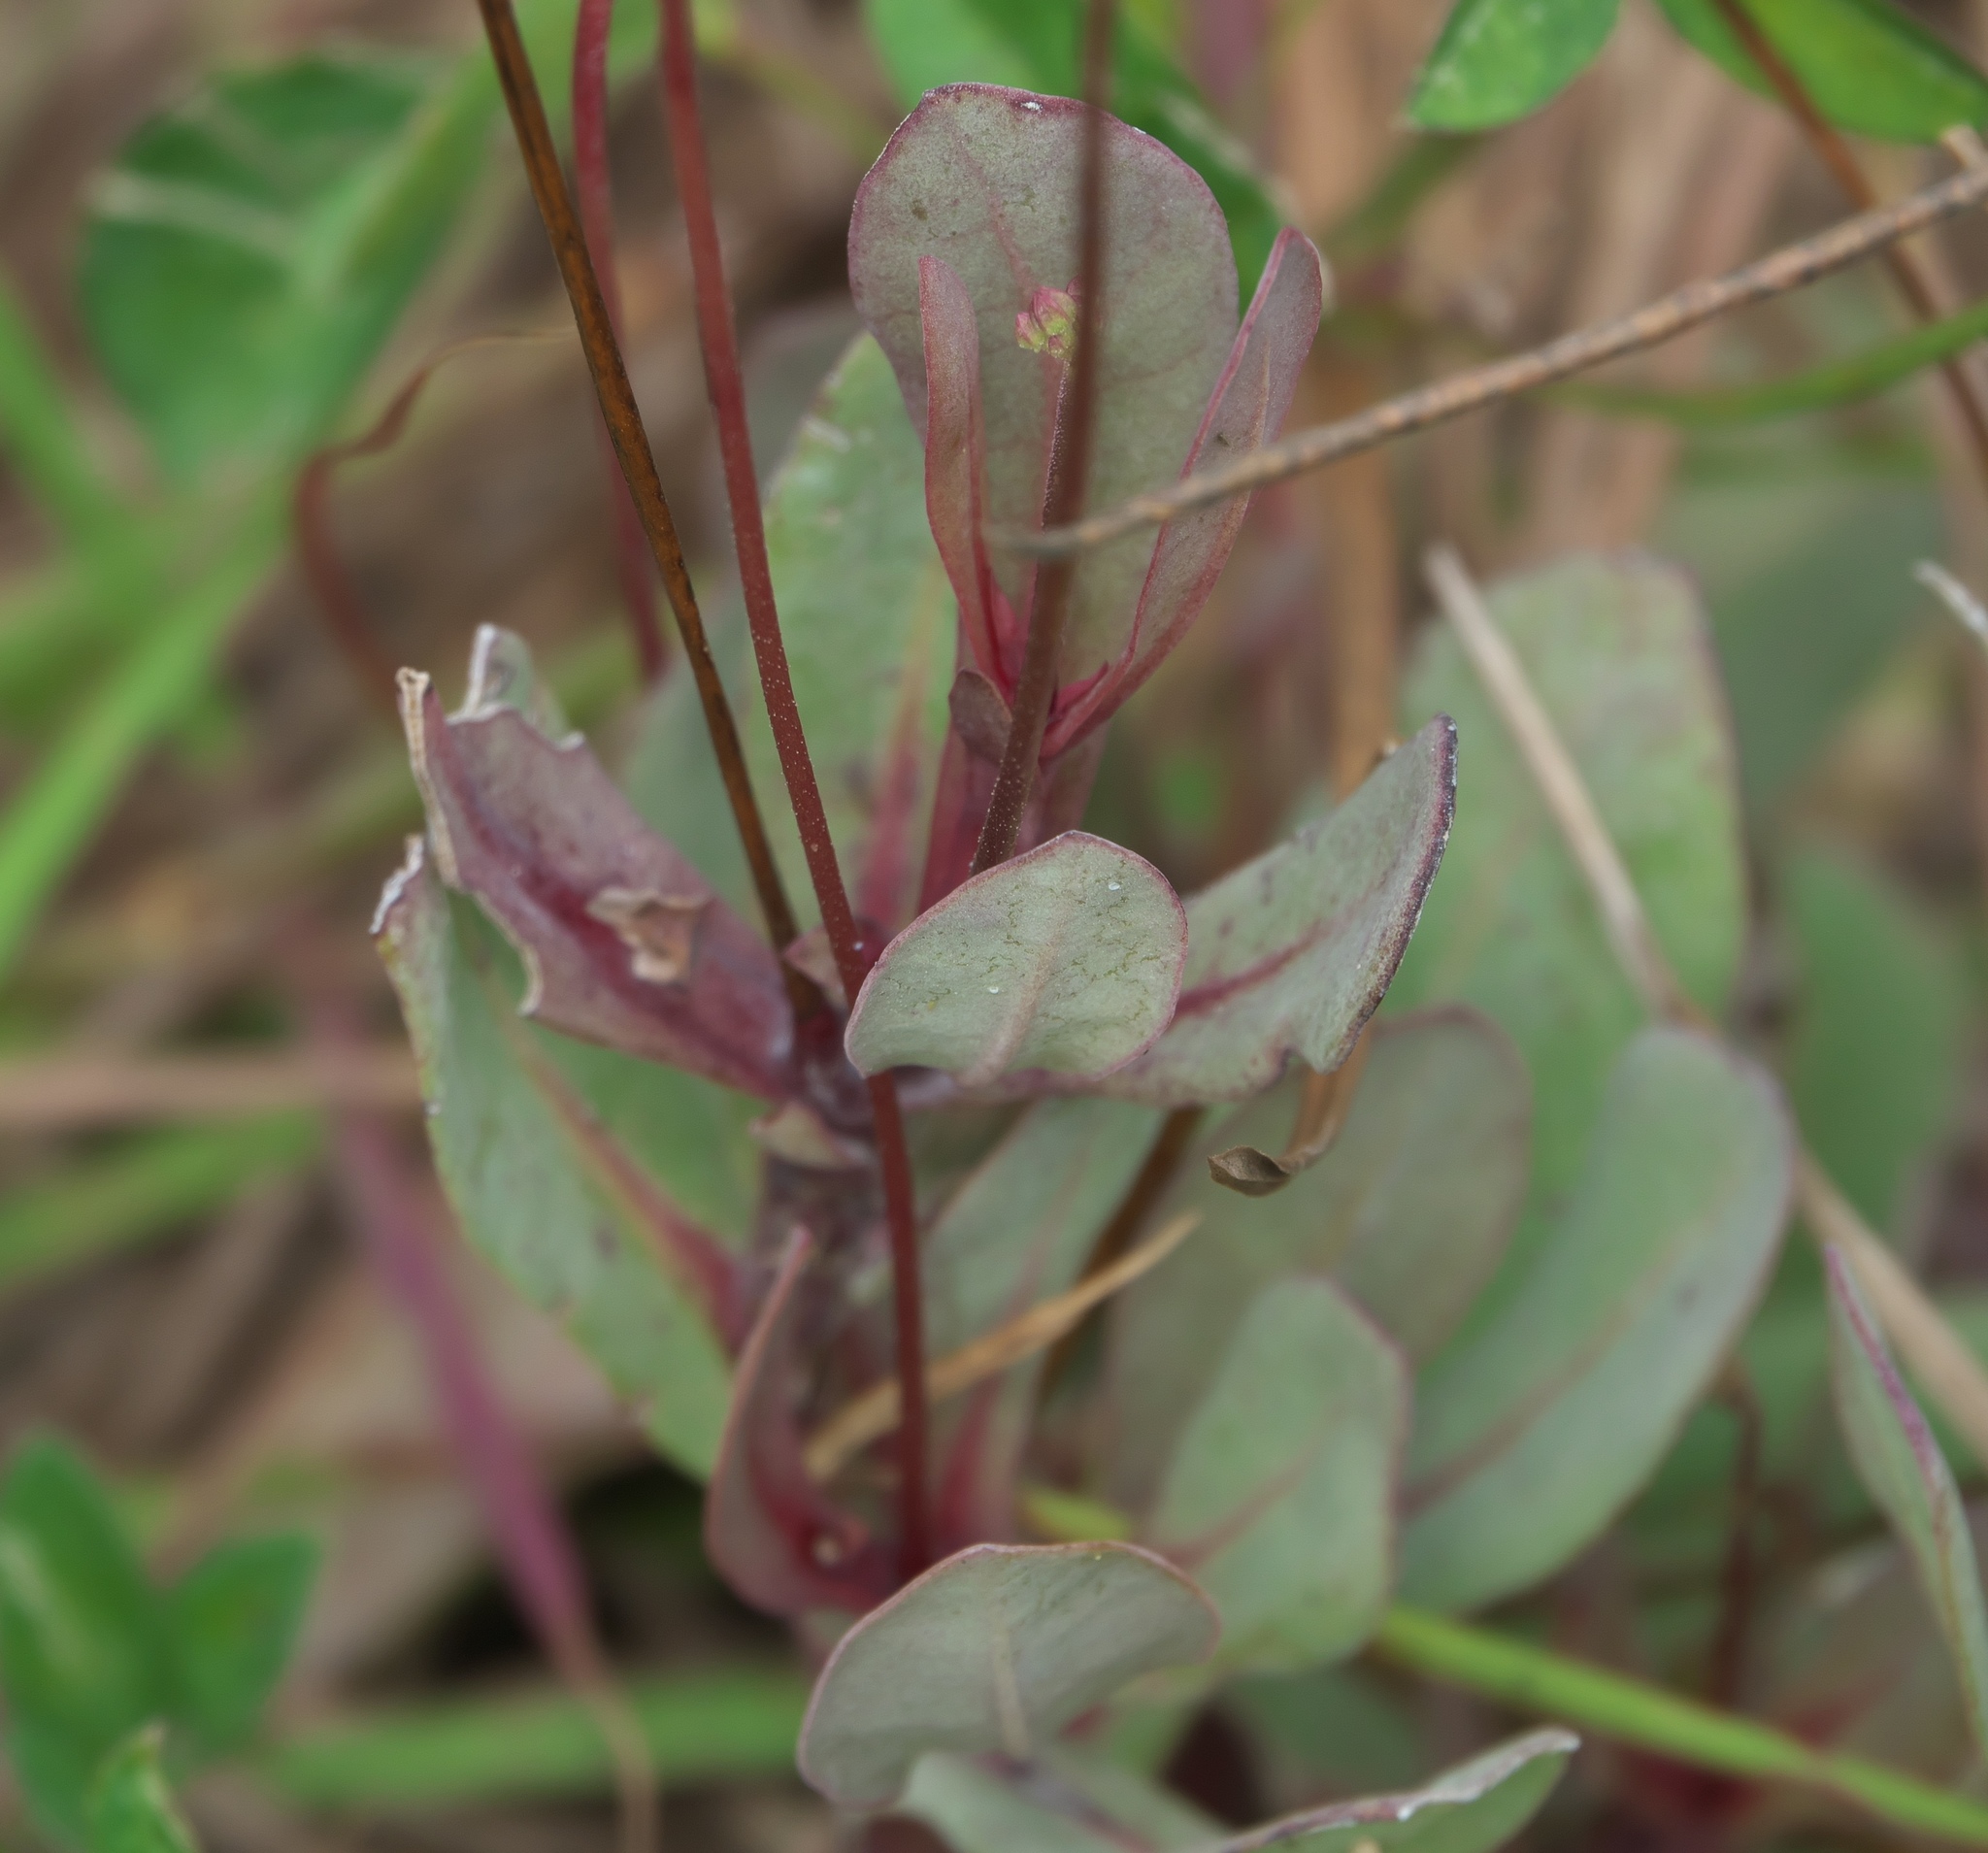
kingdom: Plantae
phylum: Tracheophyta
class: Magnoliopsida
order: Ericales
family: Primulaceae
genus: Samolus
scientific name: Samolus ebracteatus
